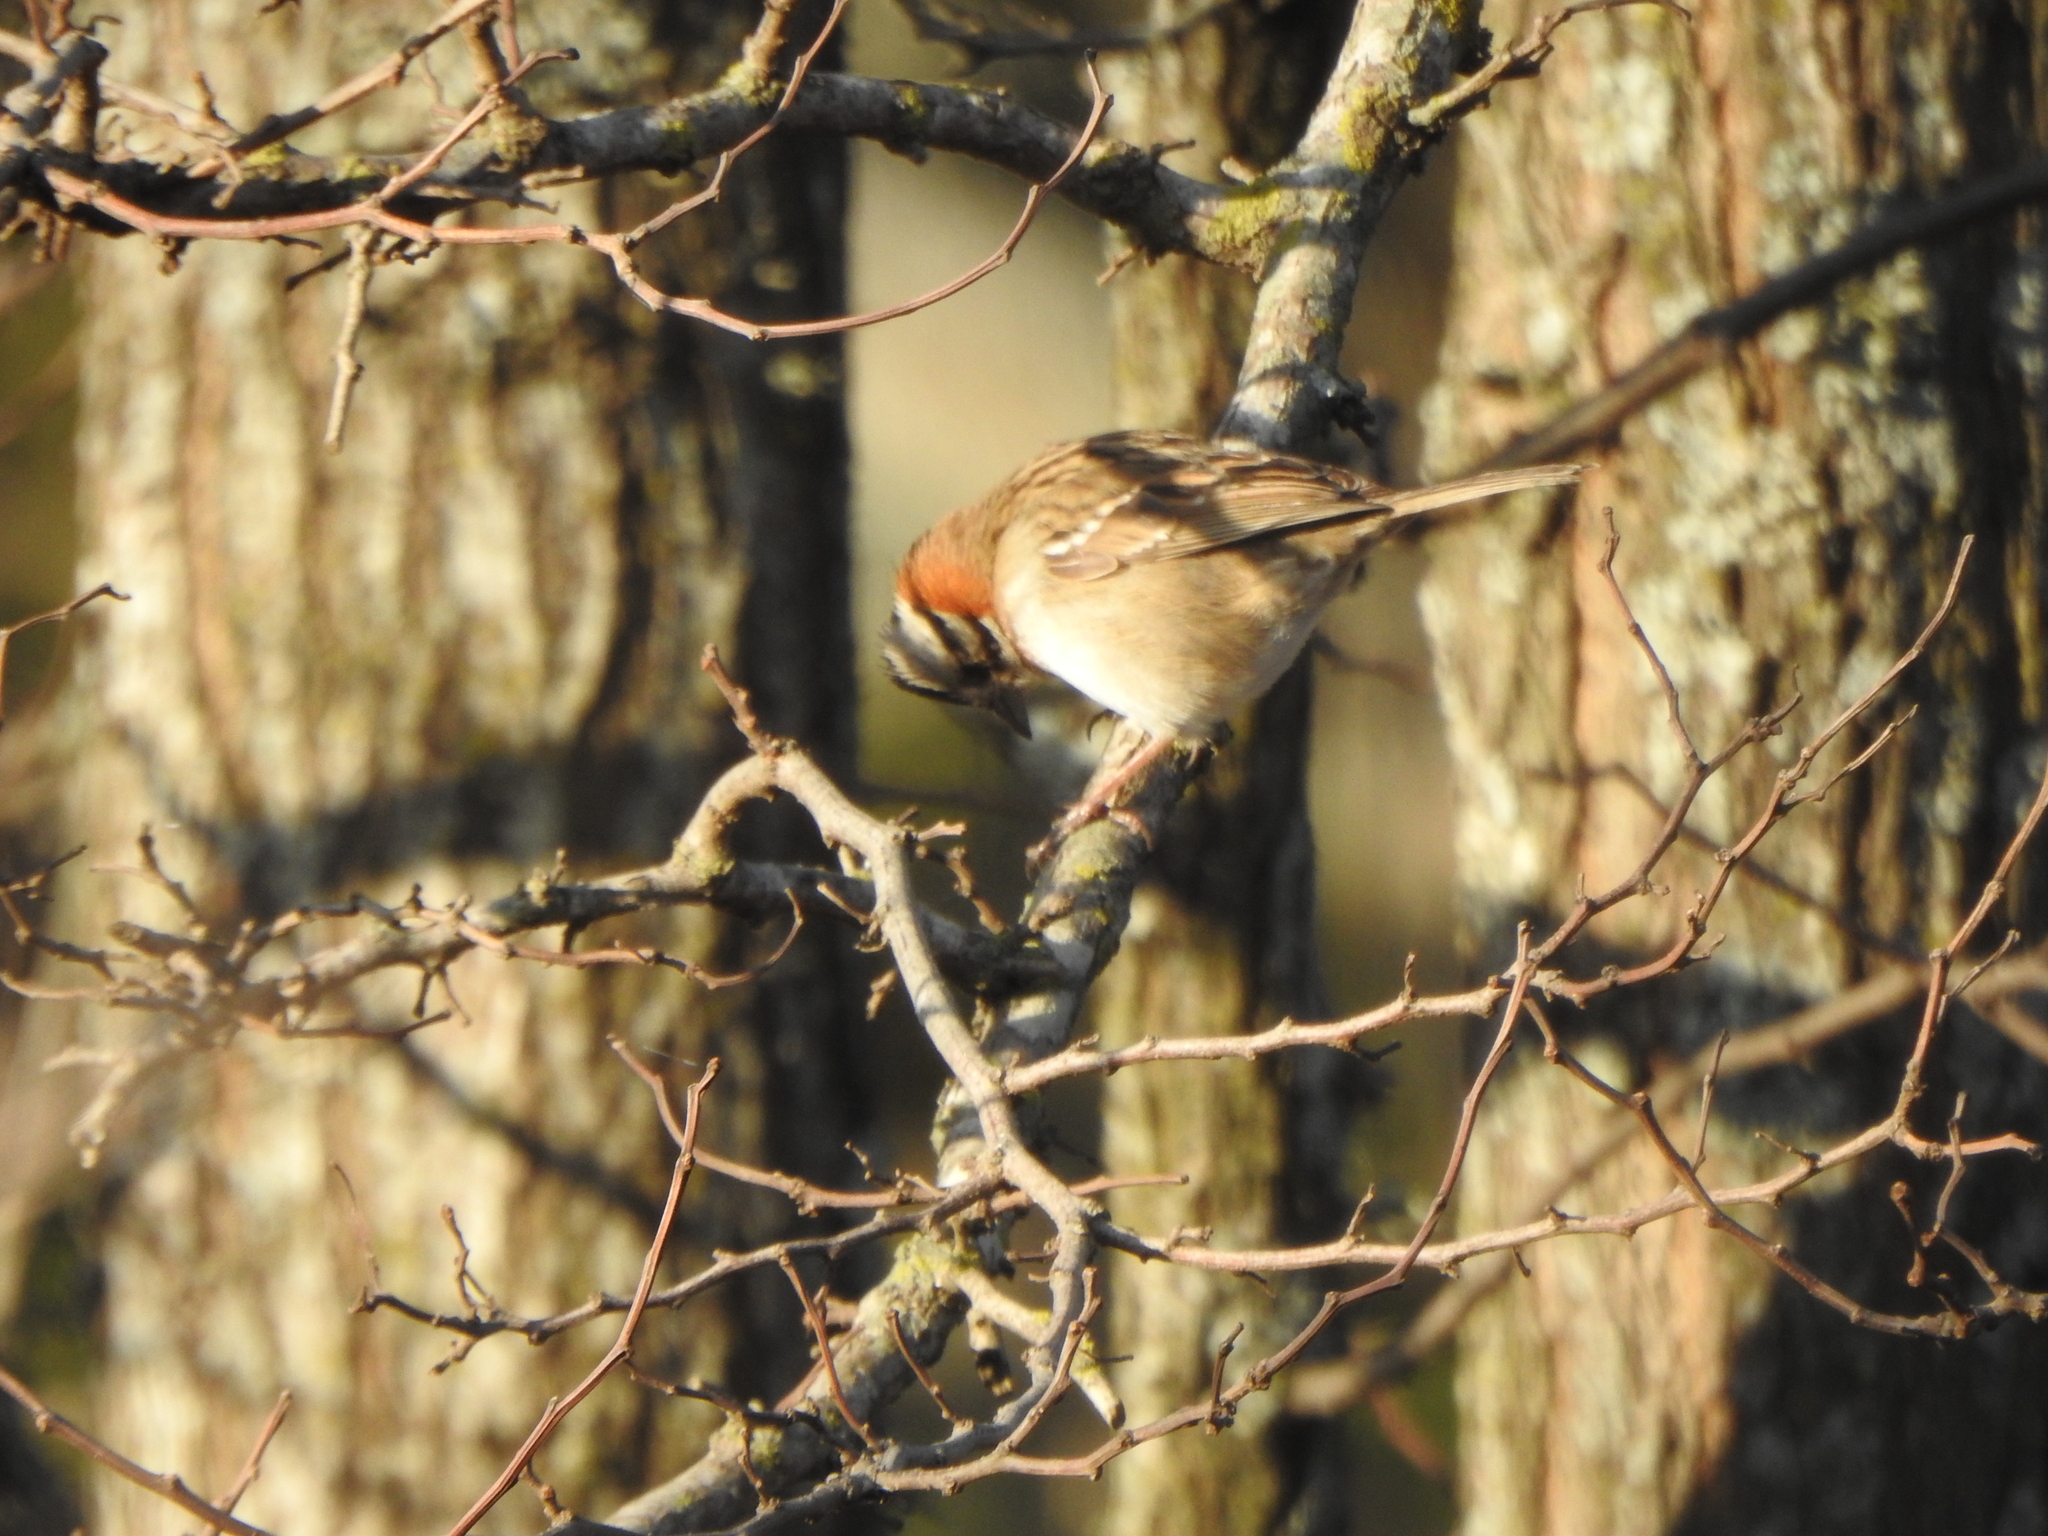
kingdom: Animalia
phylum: Chordata
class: Aves
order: Passeriformes
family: Passerellidae
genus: Zonotrichia
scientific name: Zonotrichia capensis
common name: Rufous-collared sparrow
